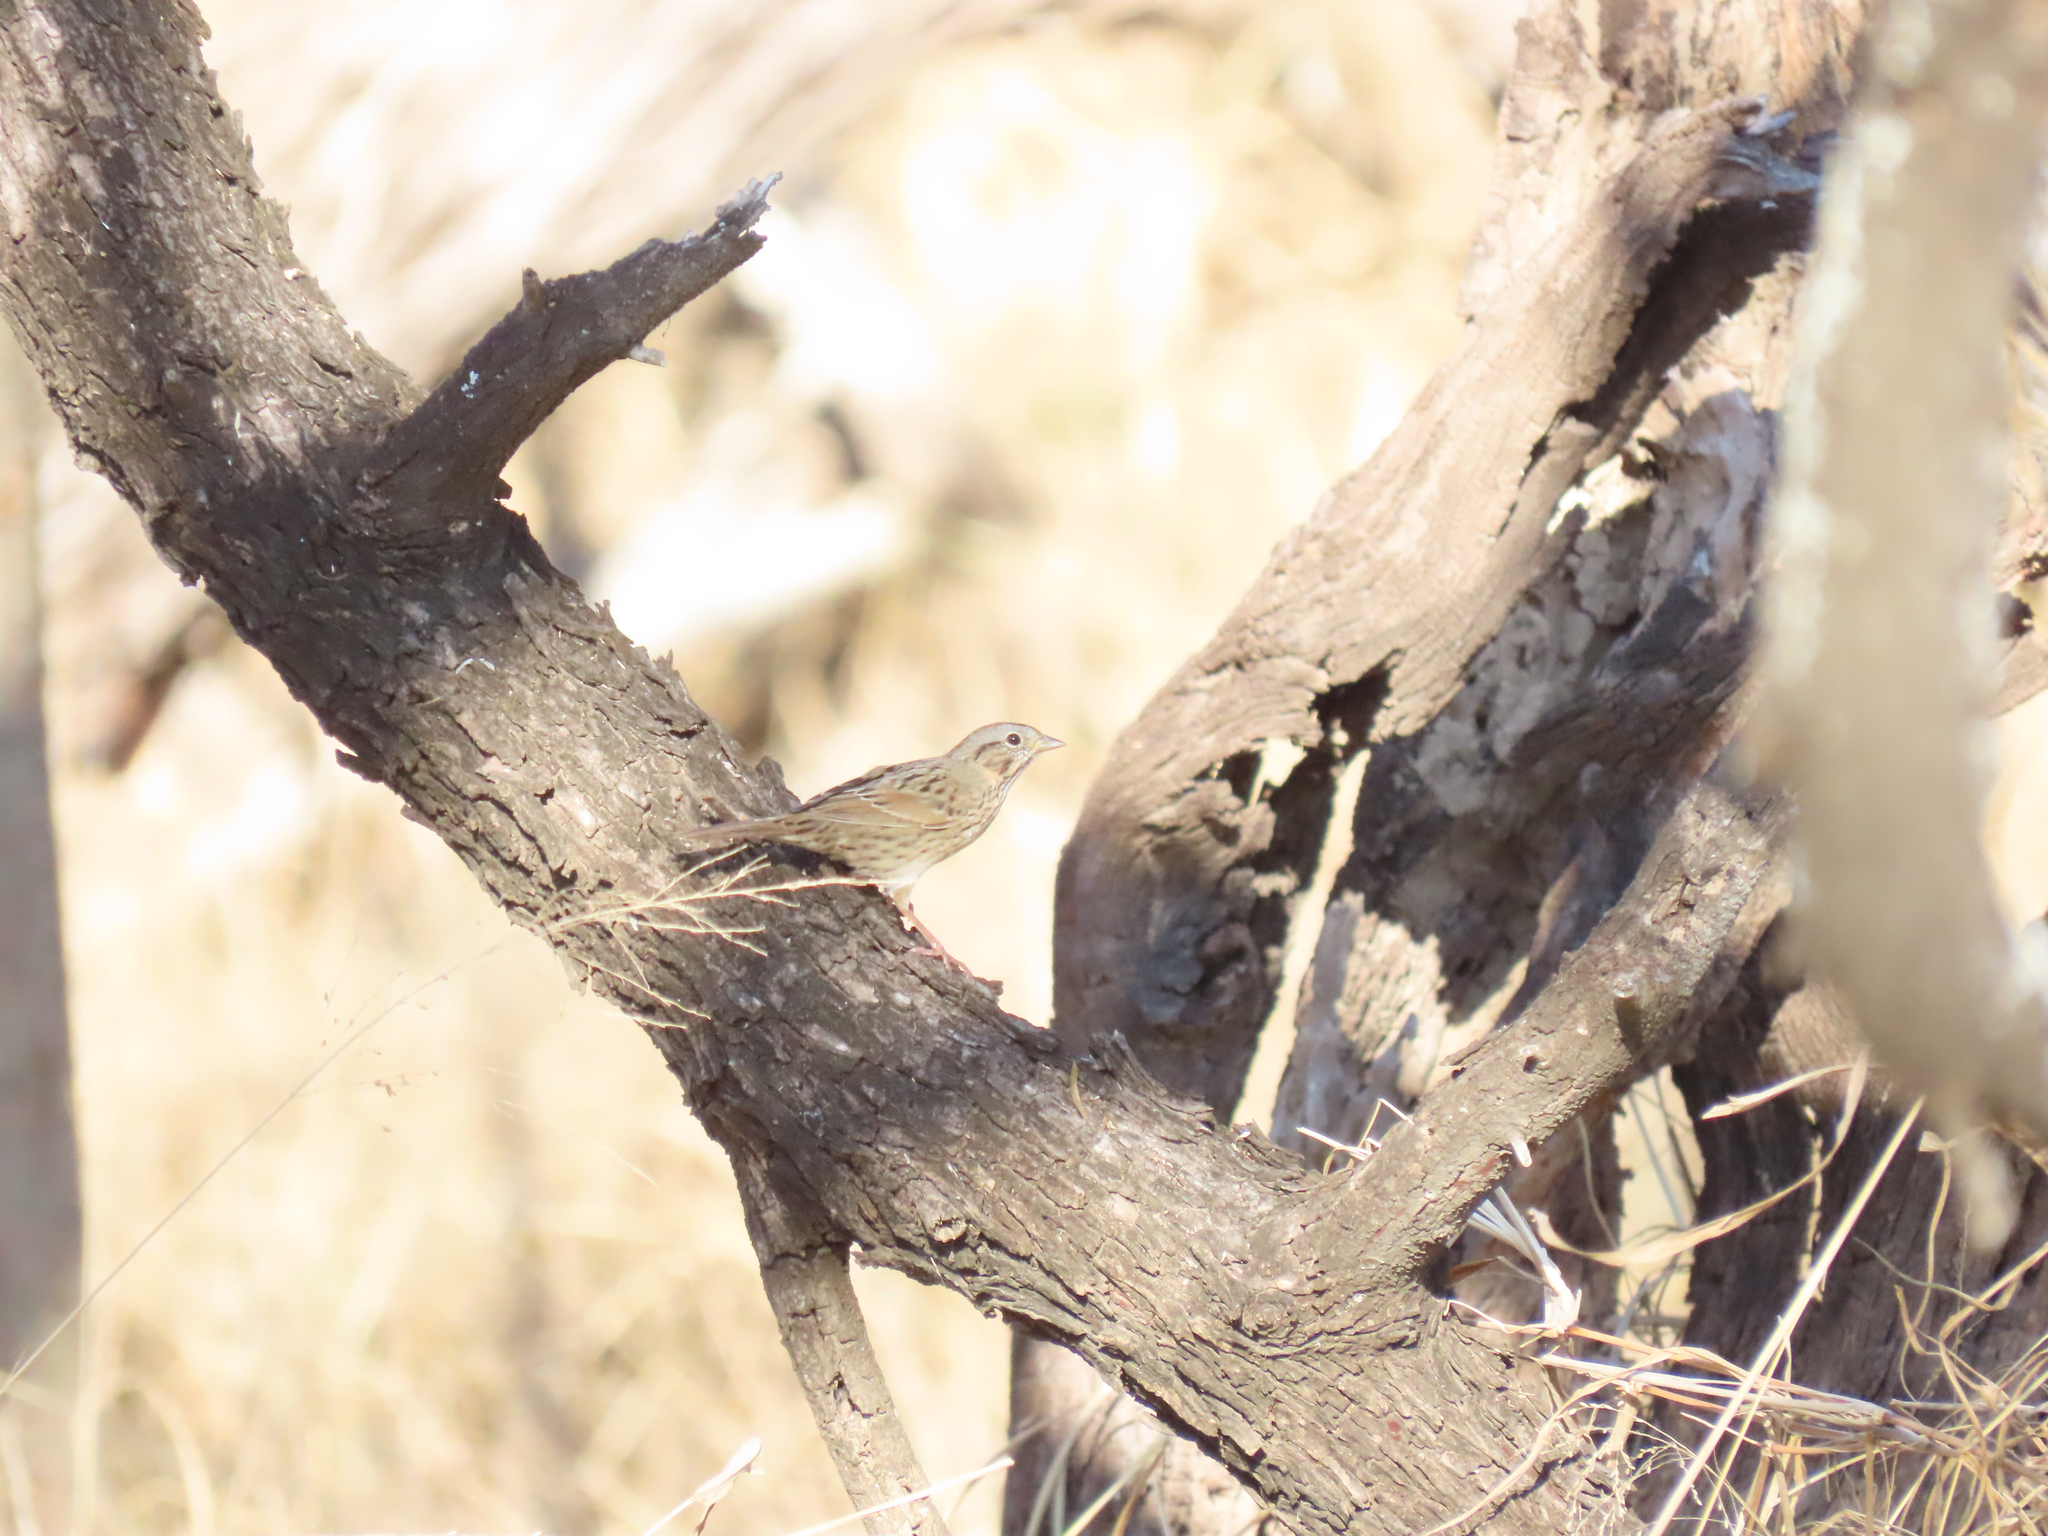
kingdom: Animalia
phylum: Chordata
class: Aves
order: Passeriformes
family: Passerellidae
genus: Melospiza
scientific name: Melospiza lincolnii
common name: Lincoln's sparrow
